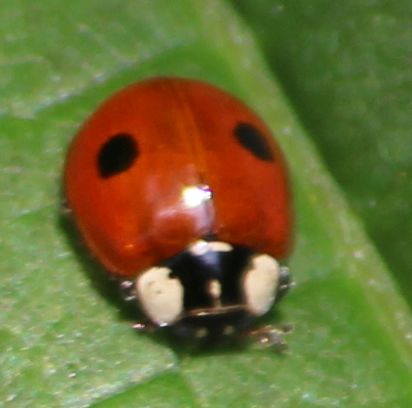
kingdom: Animalia
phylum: Arthropoda
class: Insecta
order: Coleoptera
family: Coccinellidae
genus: Adalia
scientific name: Adalia bipunctata
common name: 2-spot ladybird
